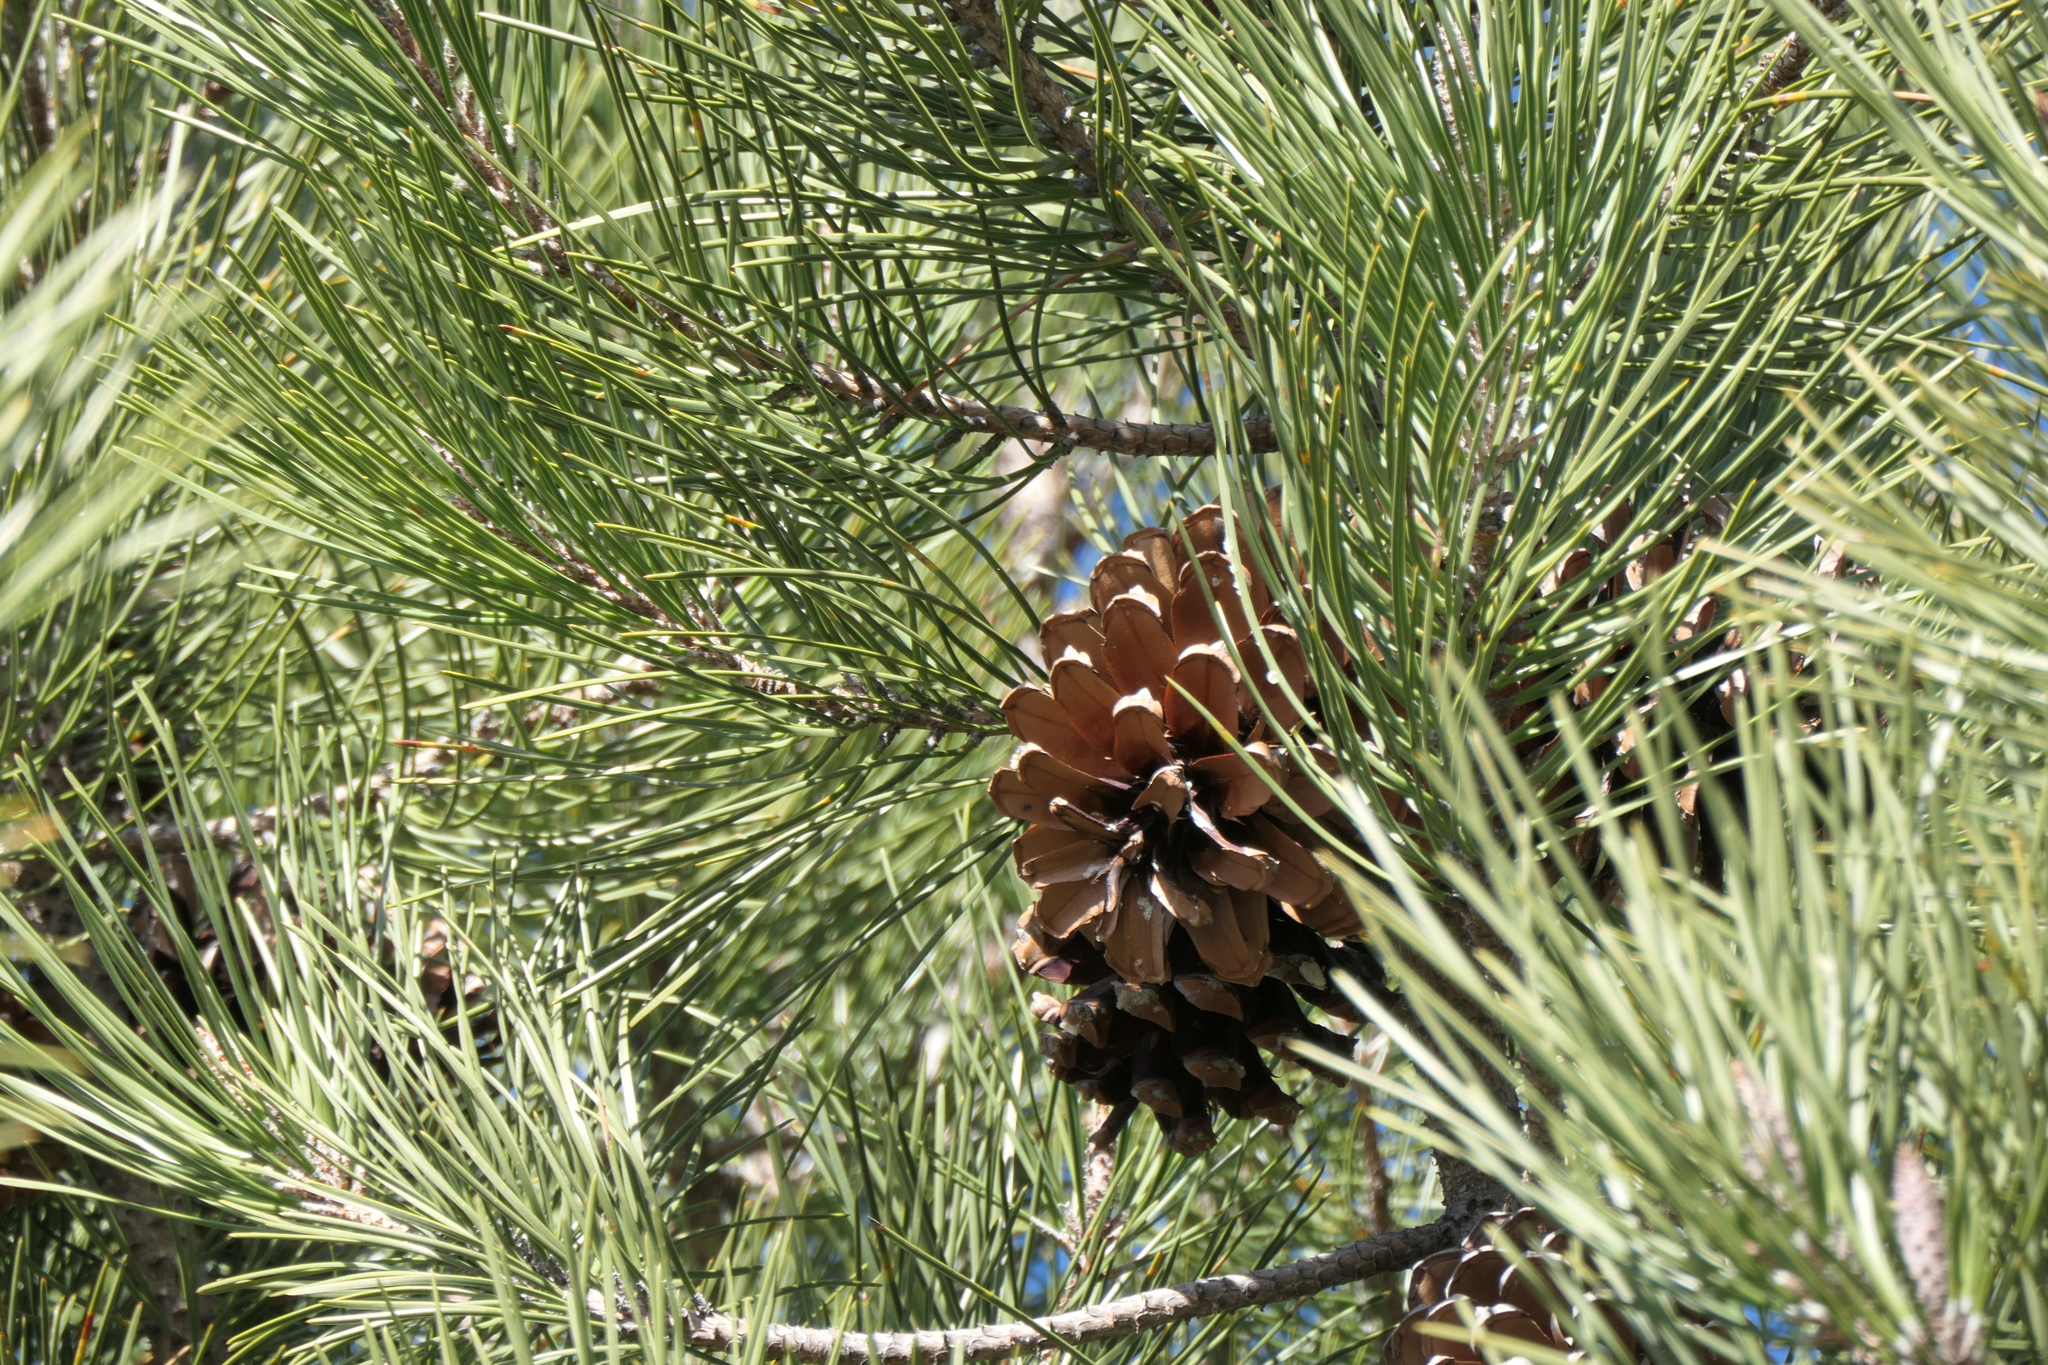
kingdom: Plantae
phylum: Tracheophyta
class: Pinopsida
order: Pinales
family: Pinaceae
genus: Pinus
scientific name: Pinus pinaster
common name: Maritime pine
